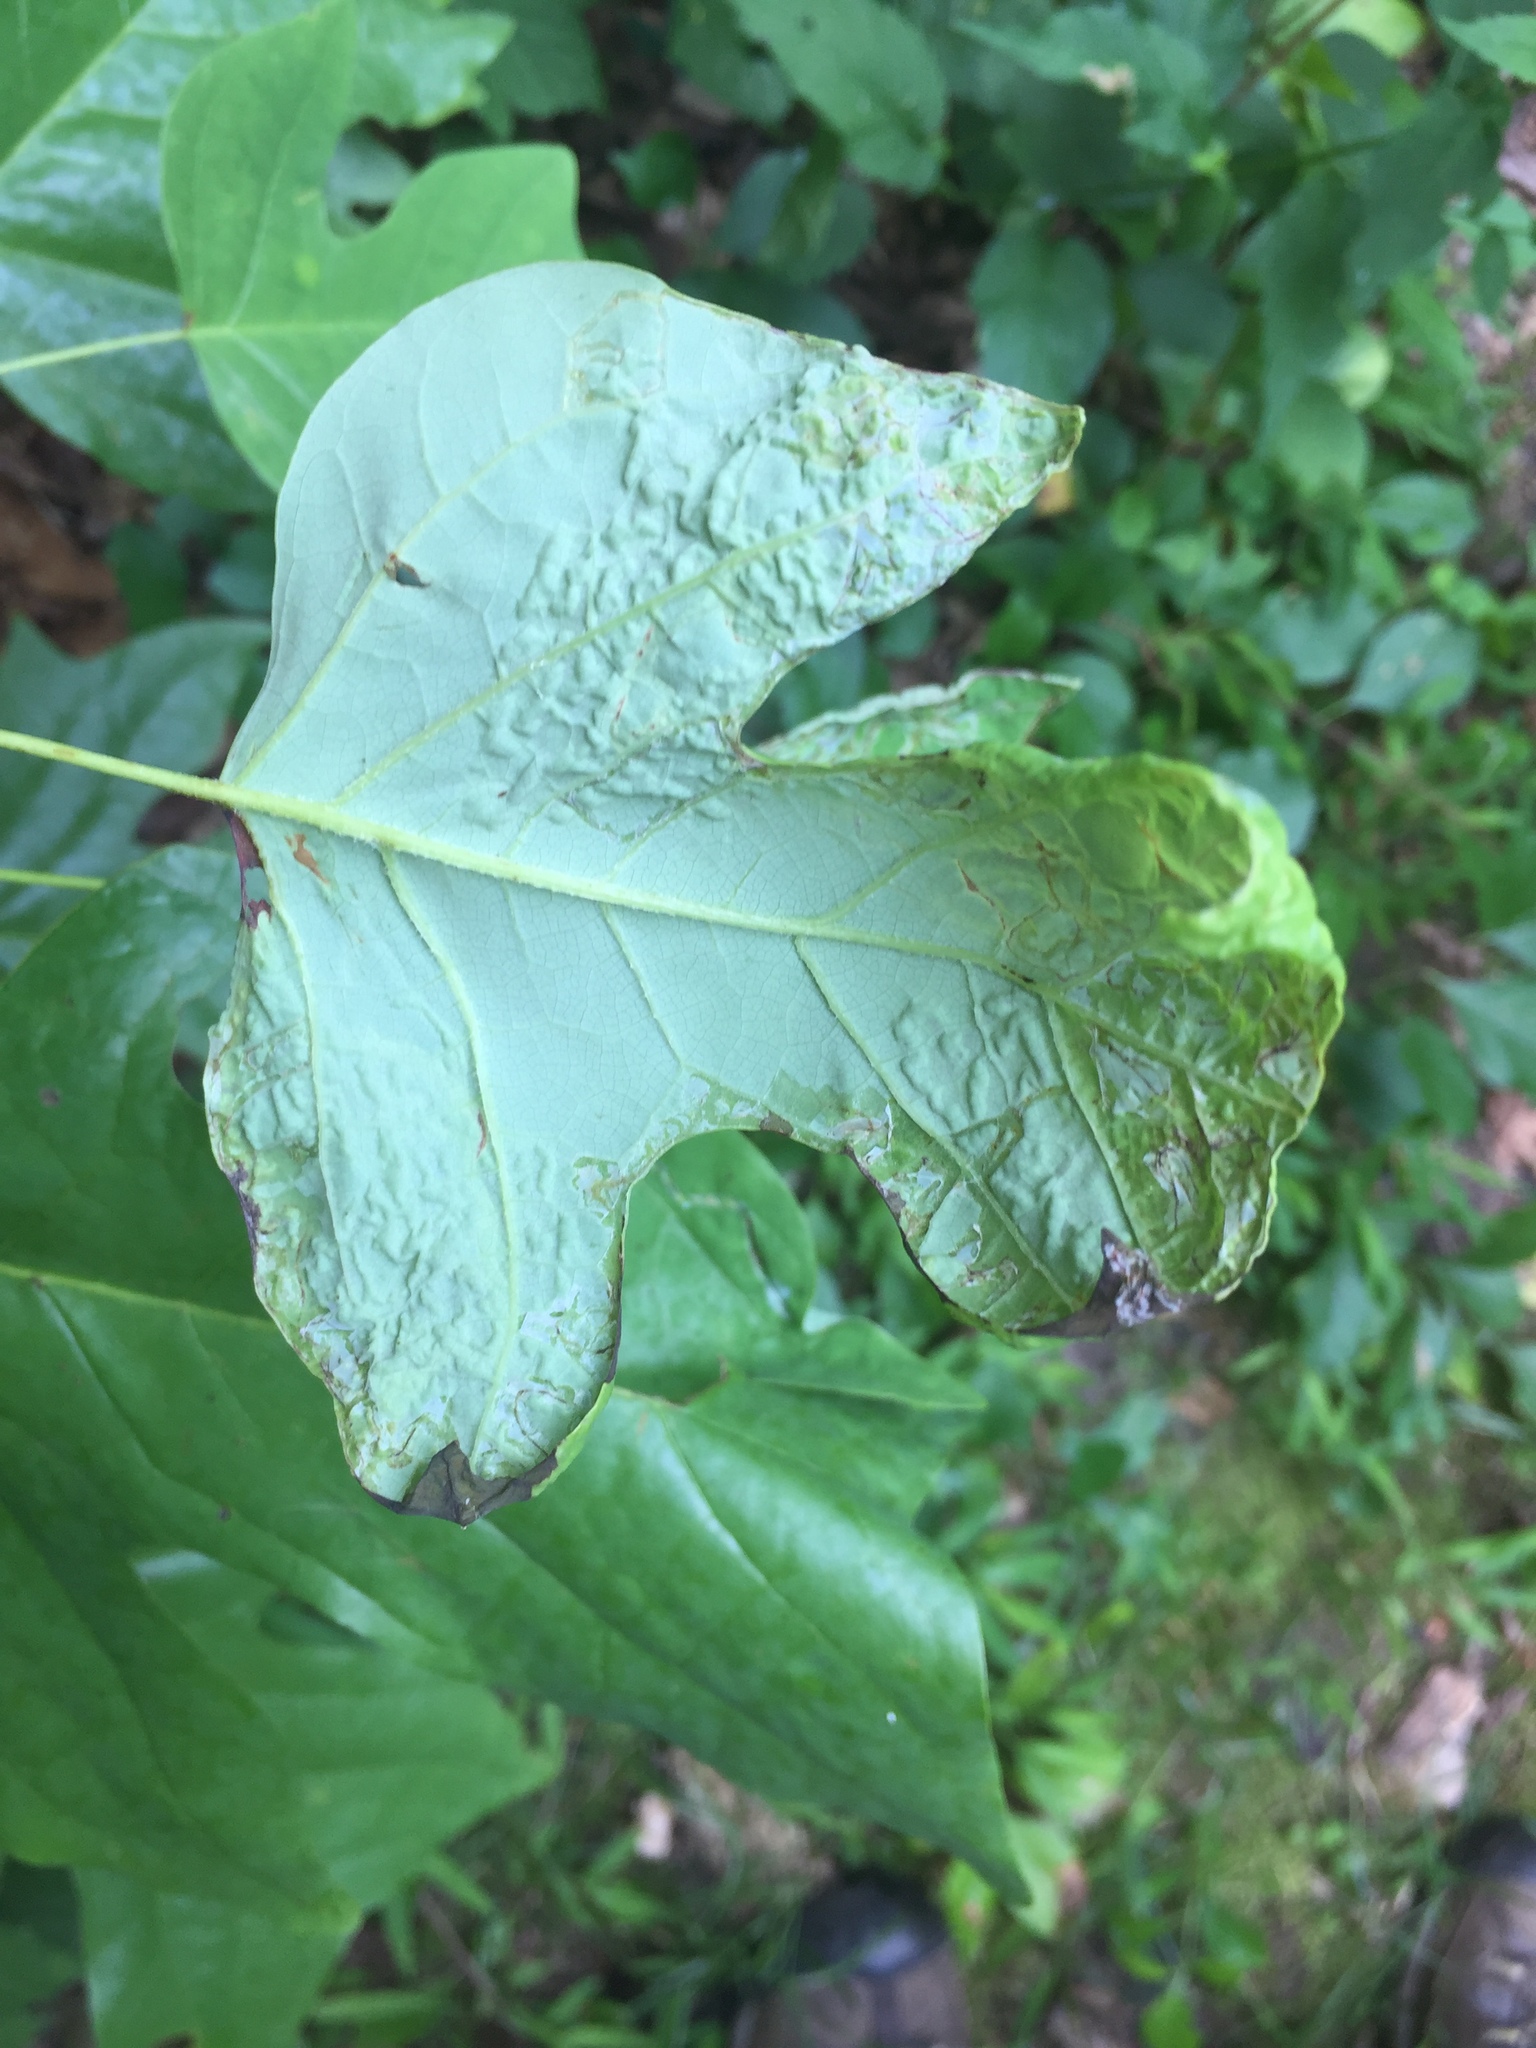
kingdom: Animalia
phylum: Arthropoda
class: Insecta
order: Lepidoptera
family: Gracillariidae
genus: Phyllocnistis
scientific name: Phyllocnistis liriodendronella
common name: Tulip tree leaf miner
